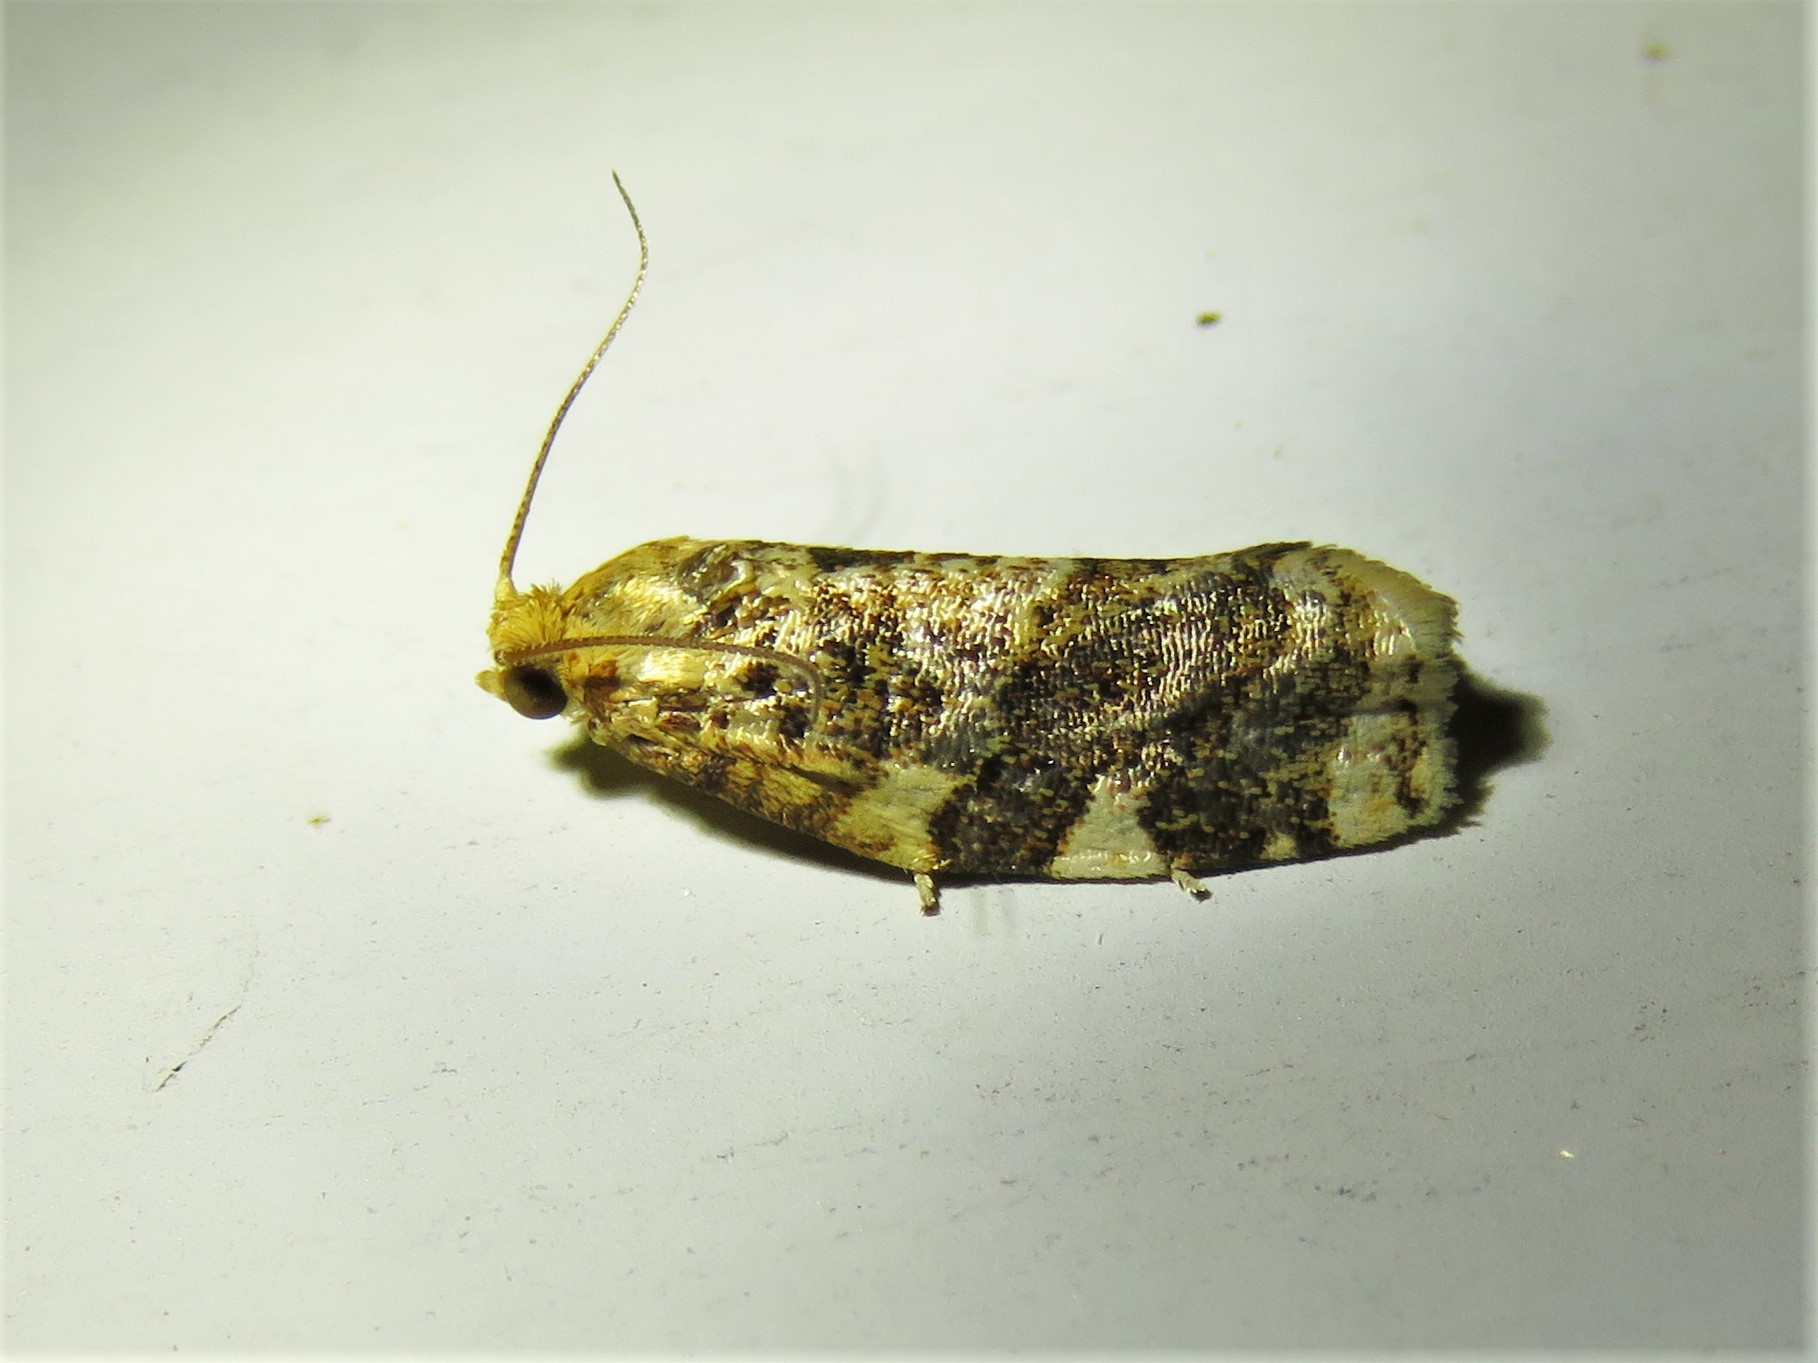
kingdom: Animalia
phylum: Arthropoda
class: Insecta
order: Lepidoptera
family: Tortricidae
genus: Archips
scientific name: Archips argyrospila
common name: Fruit-tree leafroller moth
